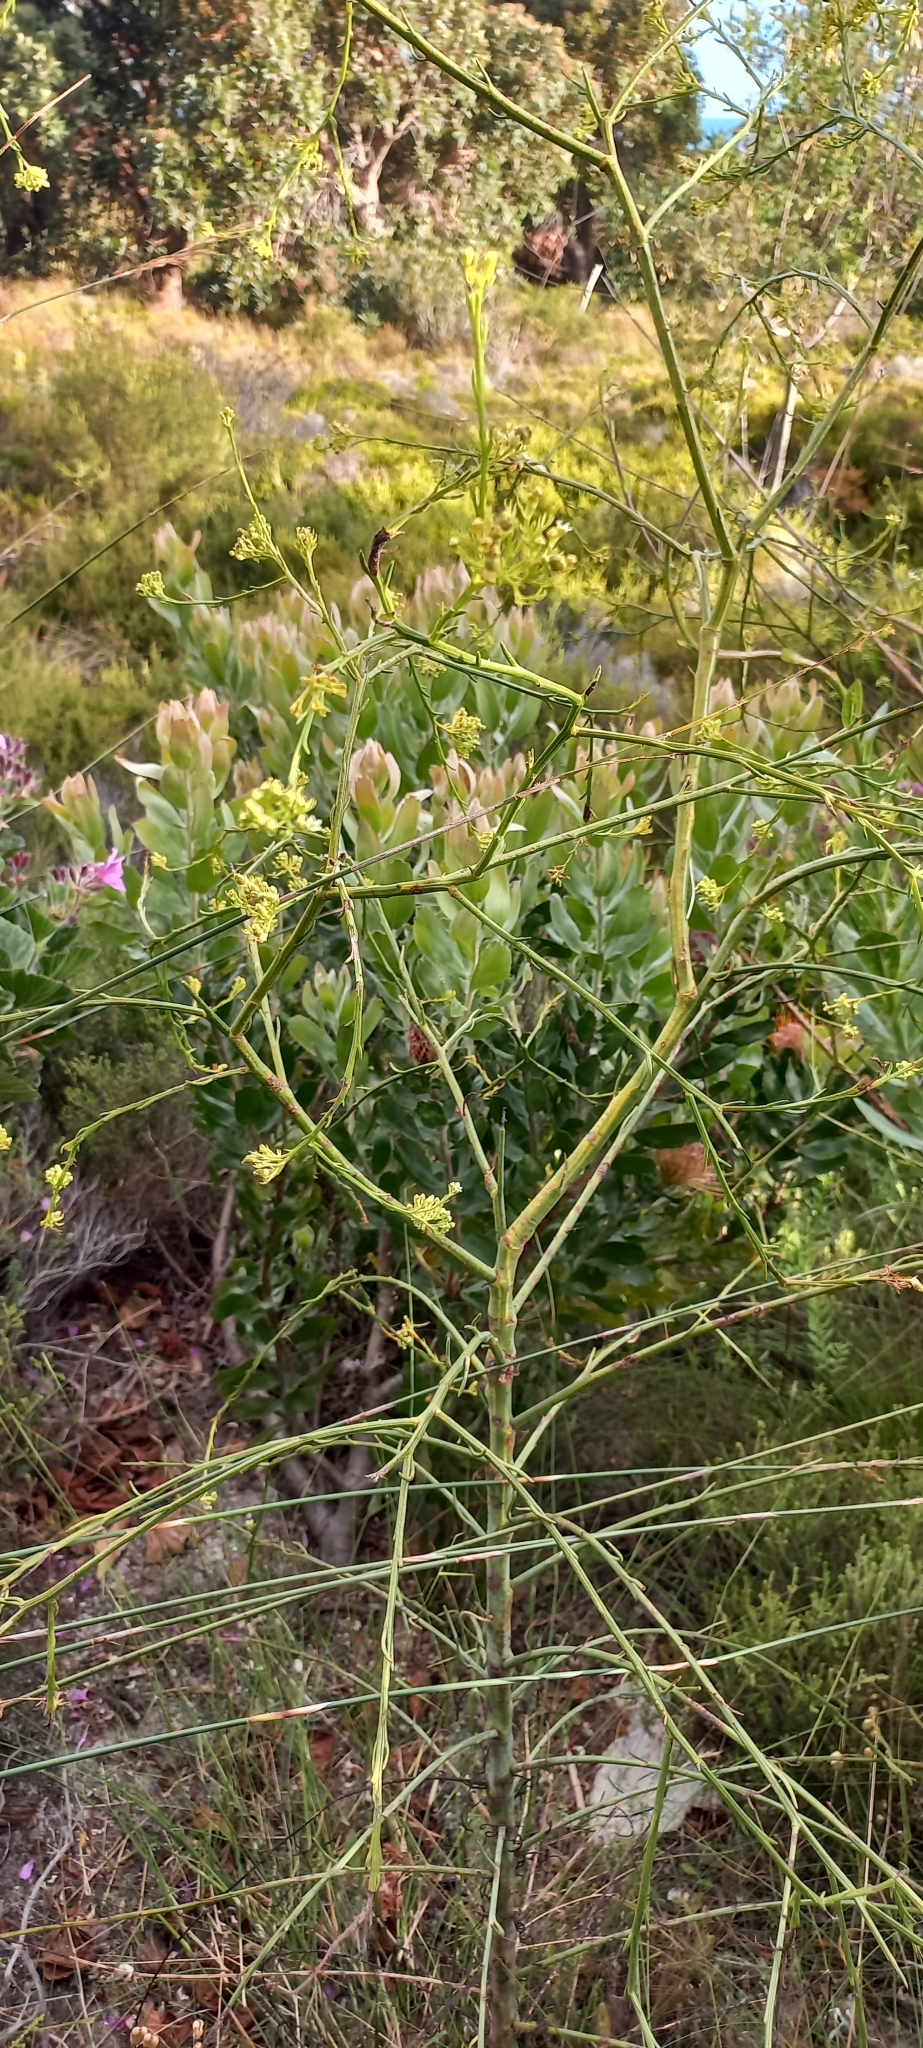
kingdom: Plantae
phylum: Tracheophyta
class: Magnoliopsida
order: Santalales
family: Thesiaceae
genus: Thesium
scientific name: Thesium strictum
